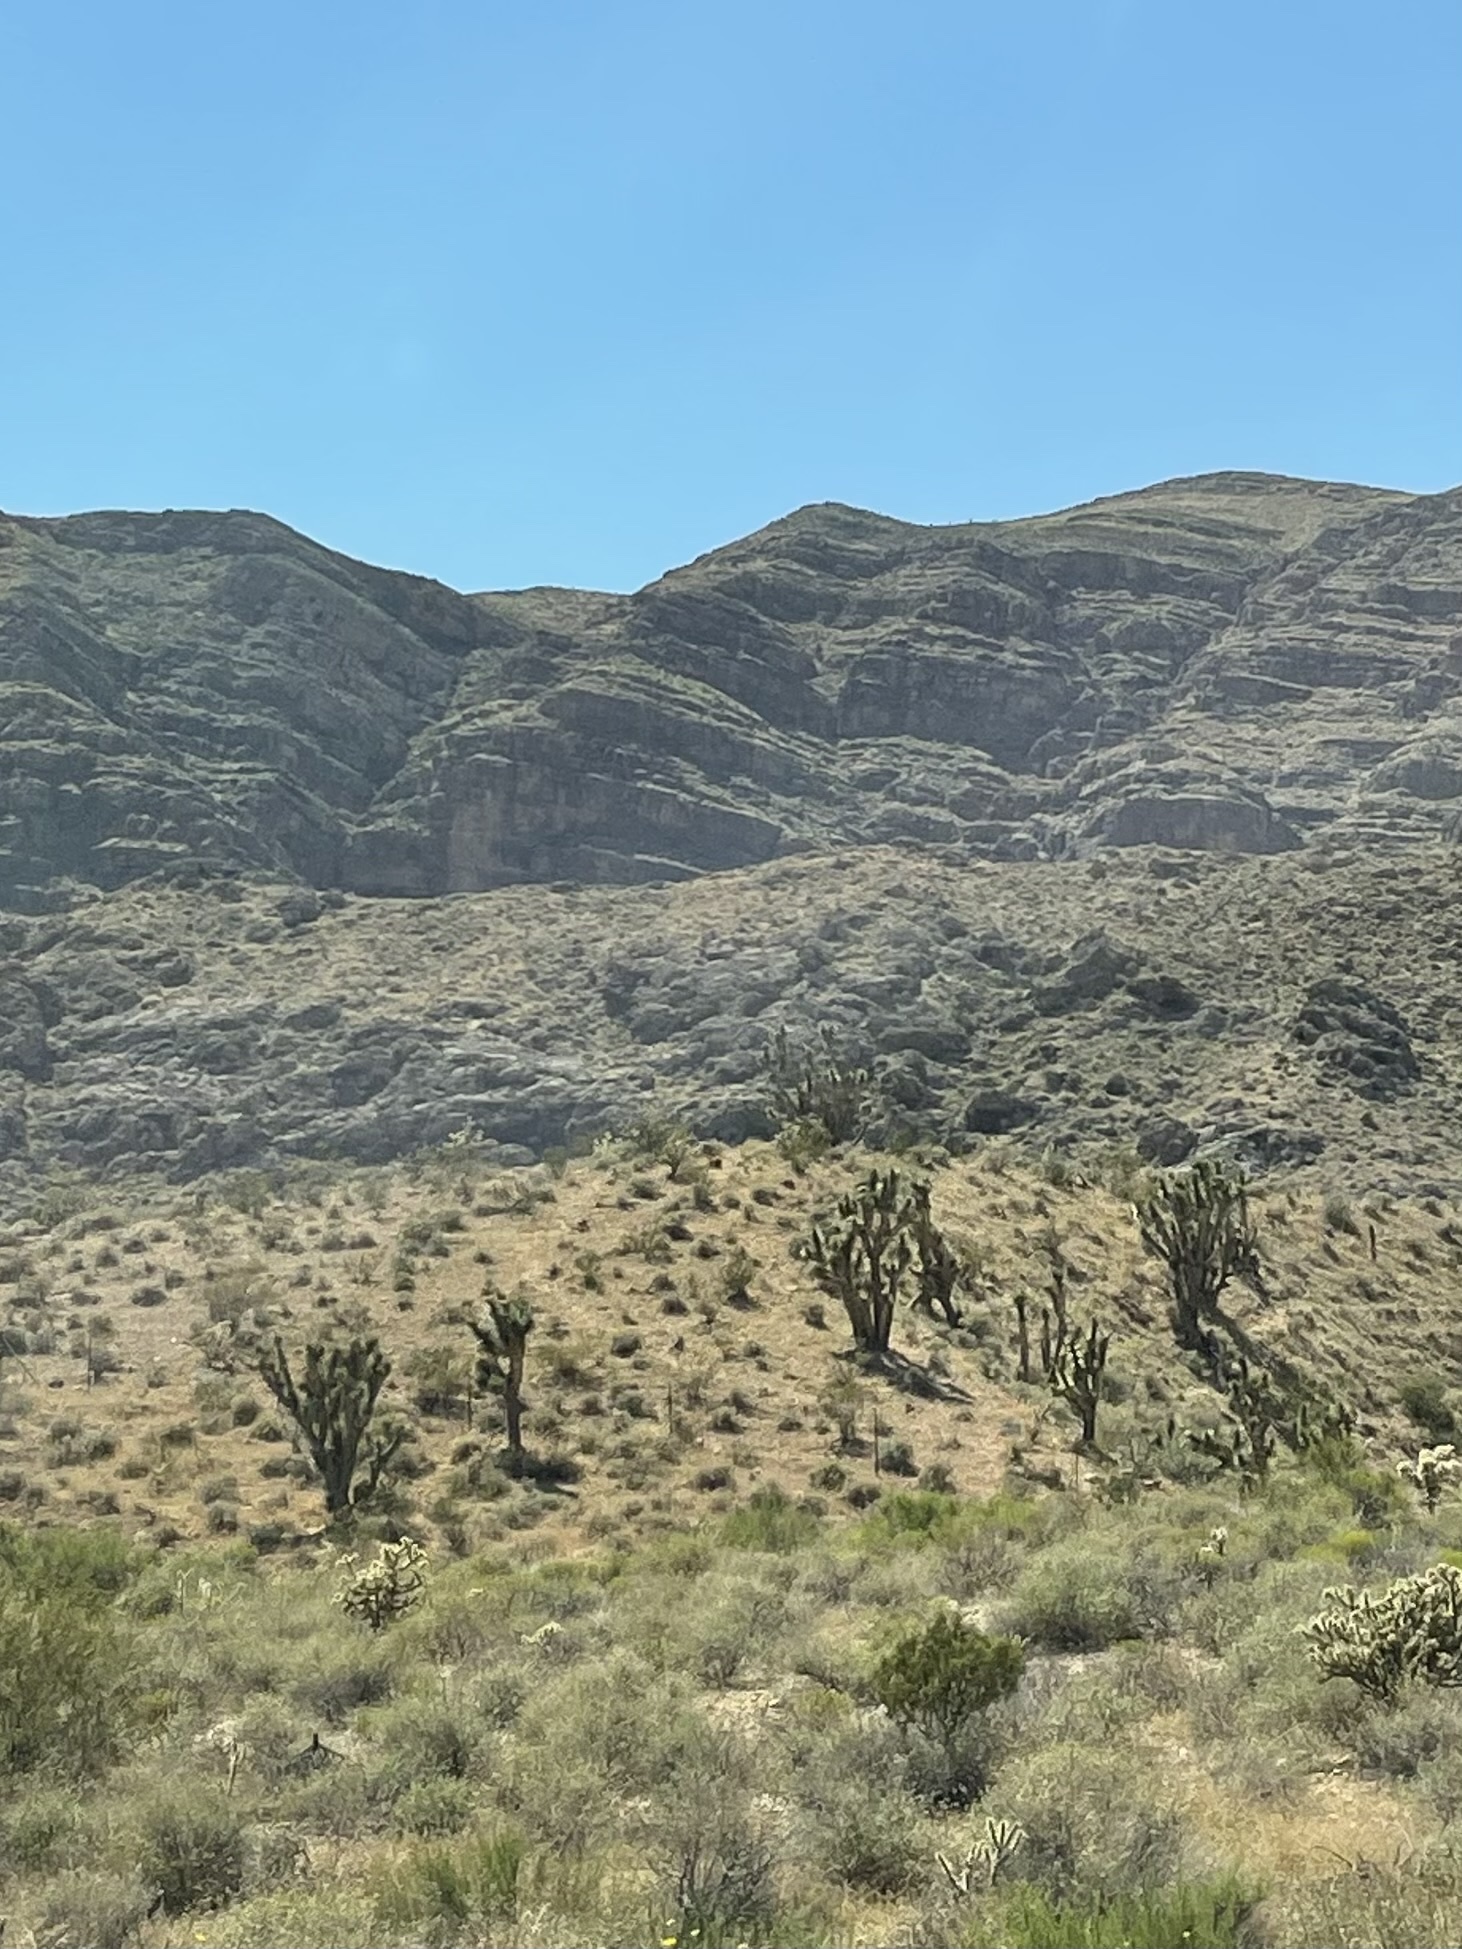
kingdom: Plantae
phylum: Tracheophyta
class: Liliopsida
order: Asparagales
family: Asparagaceae
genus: Yucca
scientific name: Yucca brevifolia
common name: Joshua tree
